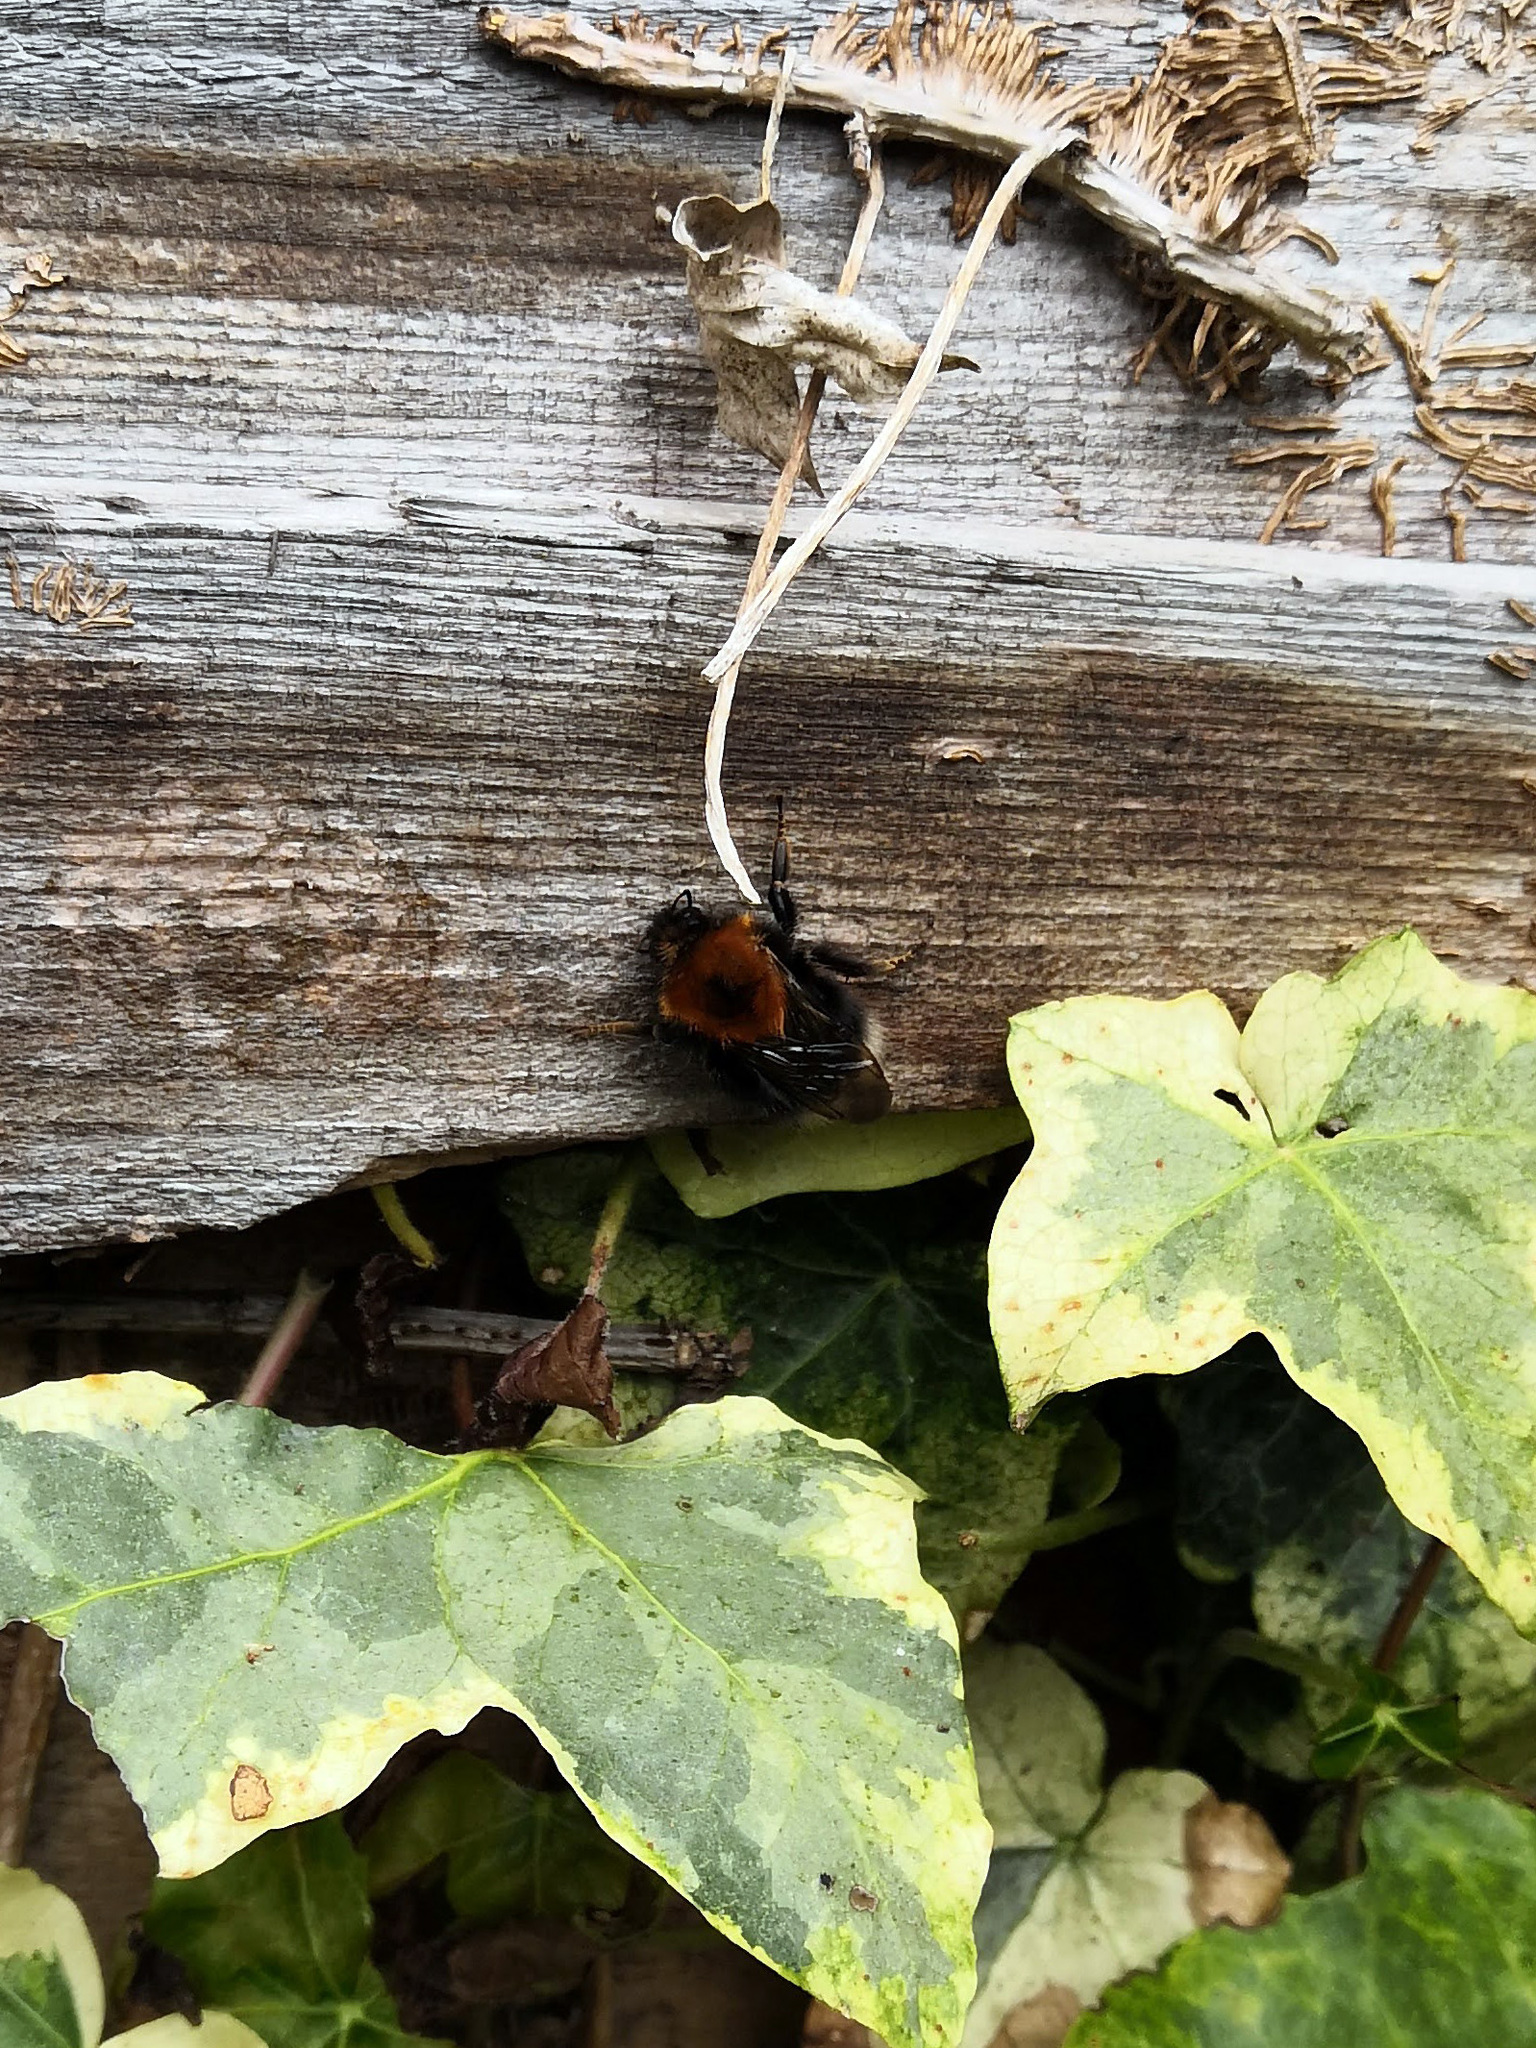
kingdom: Animalia
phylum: Arthropoda
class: Insecta
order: Hymenoptera
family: Apidae
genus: Bombus
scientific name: Bombus hypnorum
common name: New garden bumblebee
